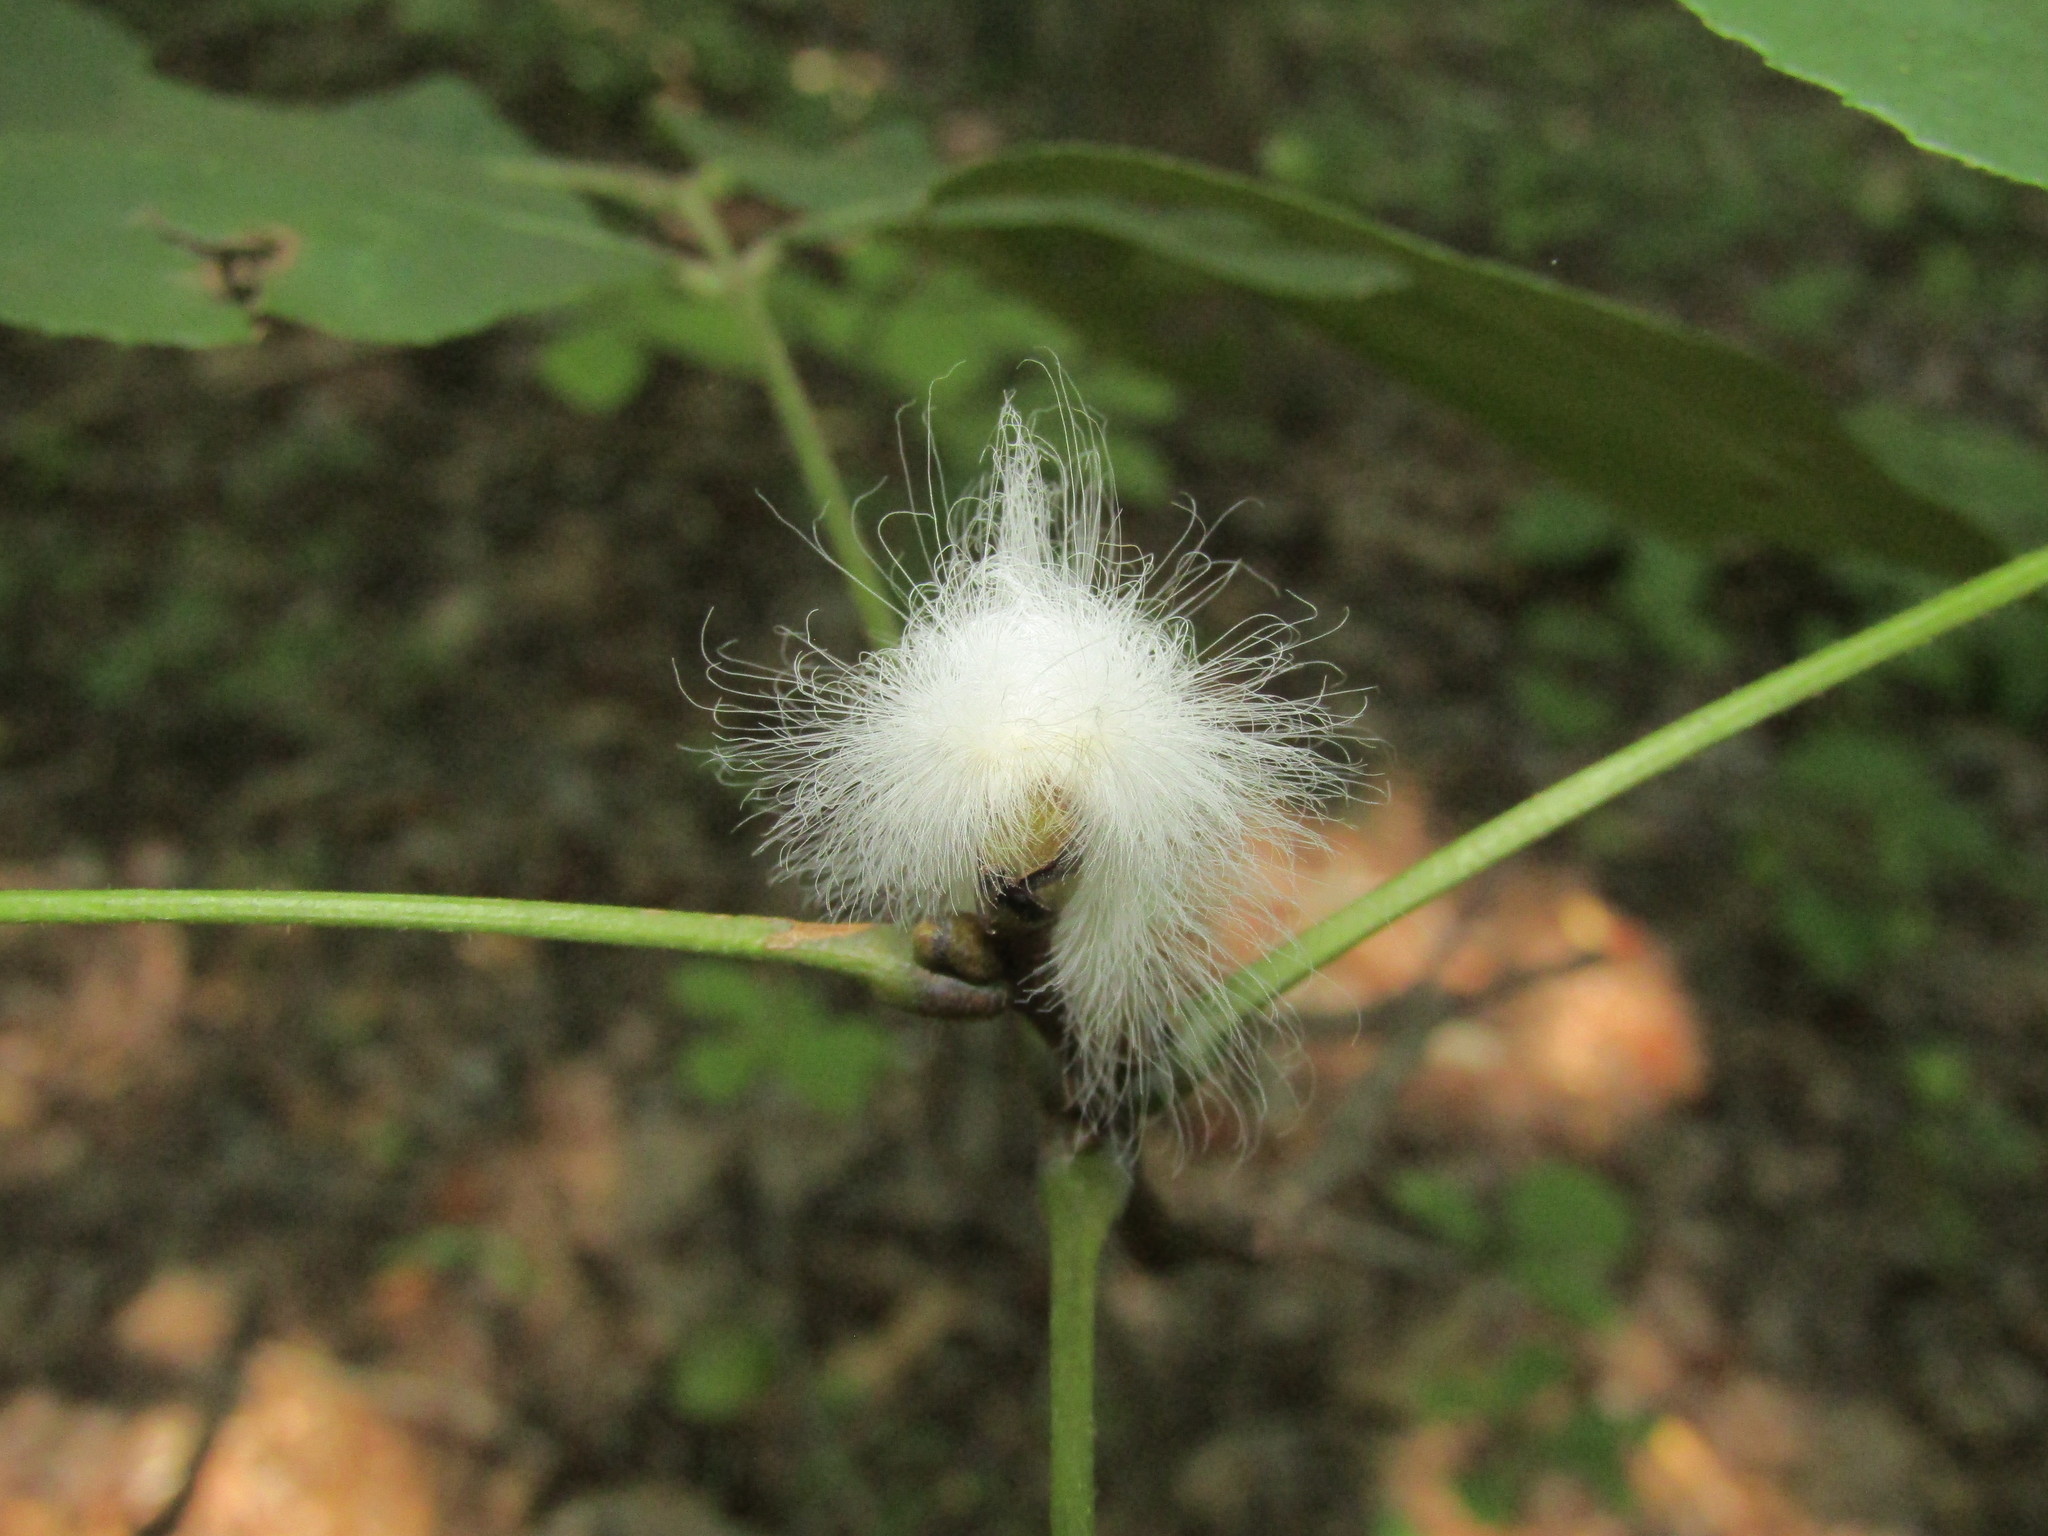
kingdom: Animalia
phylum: Arthropoda
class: Insecta
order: Lepidoptera
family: Megalopygidae
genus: Megalopyge
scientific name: Megalopyge crispata
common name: Black-waved flannel moth
